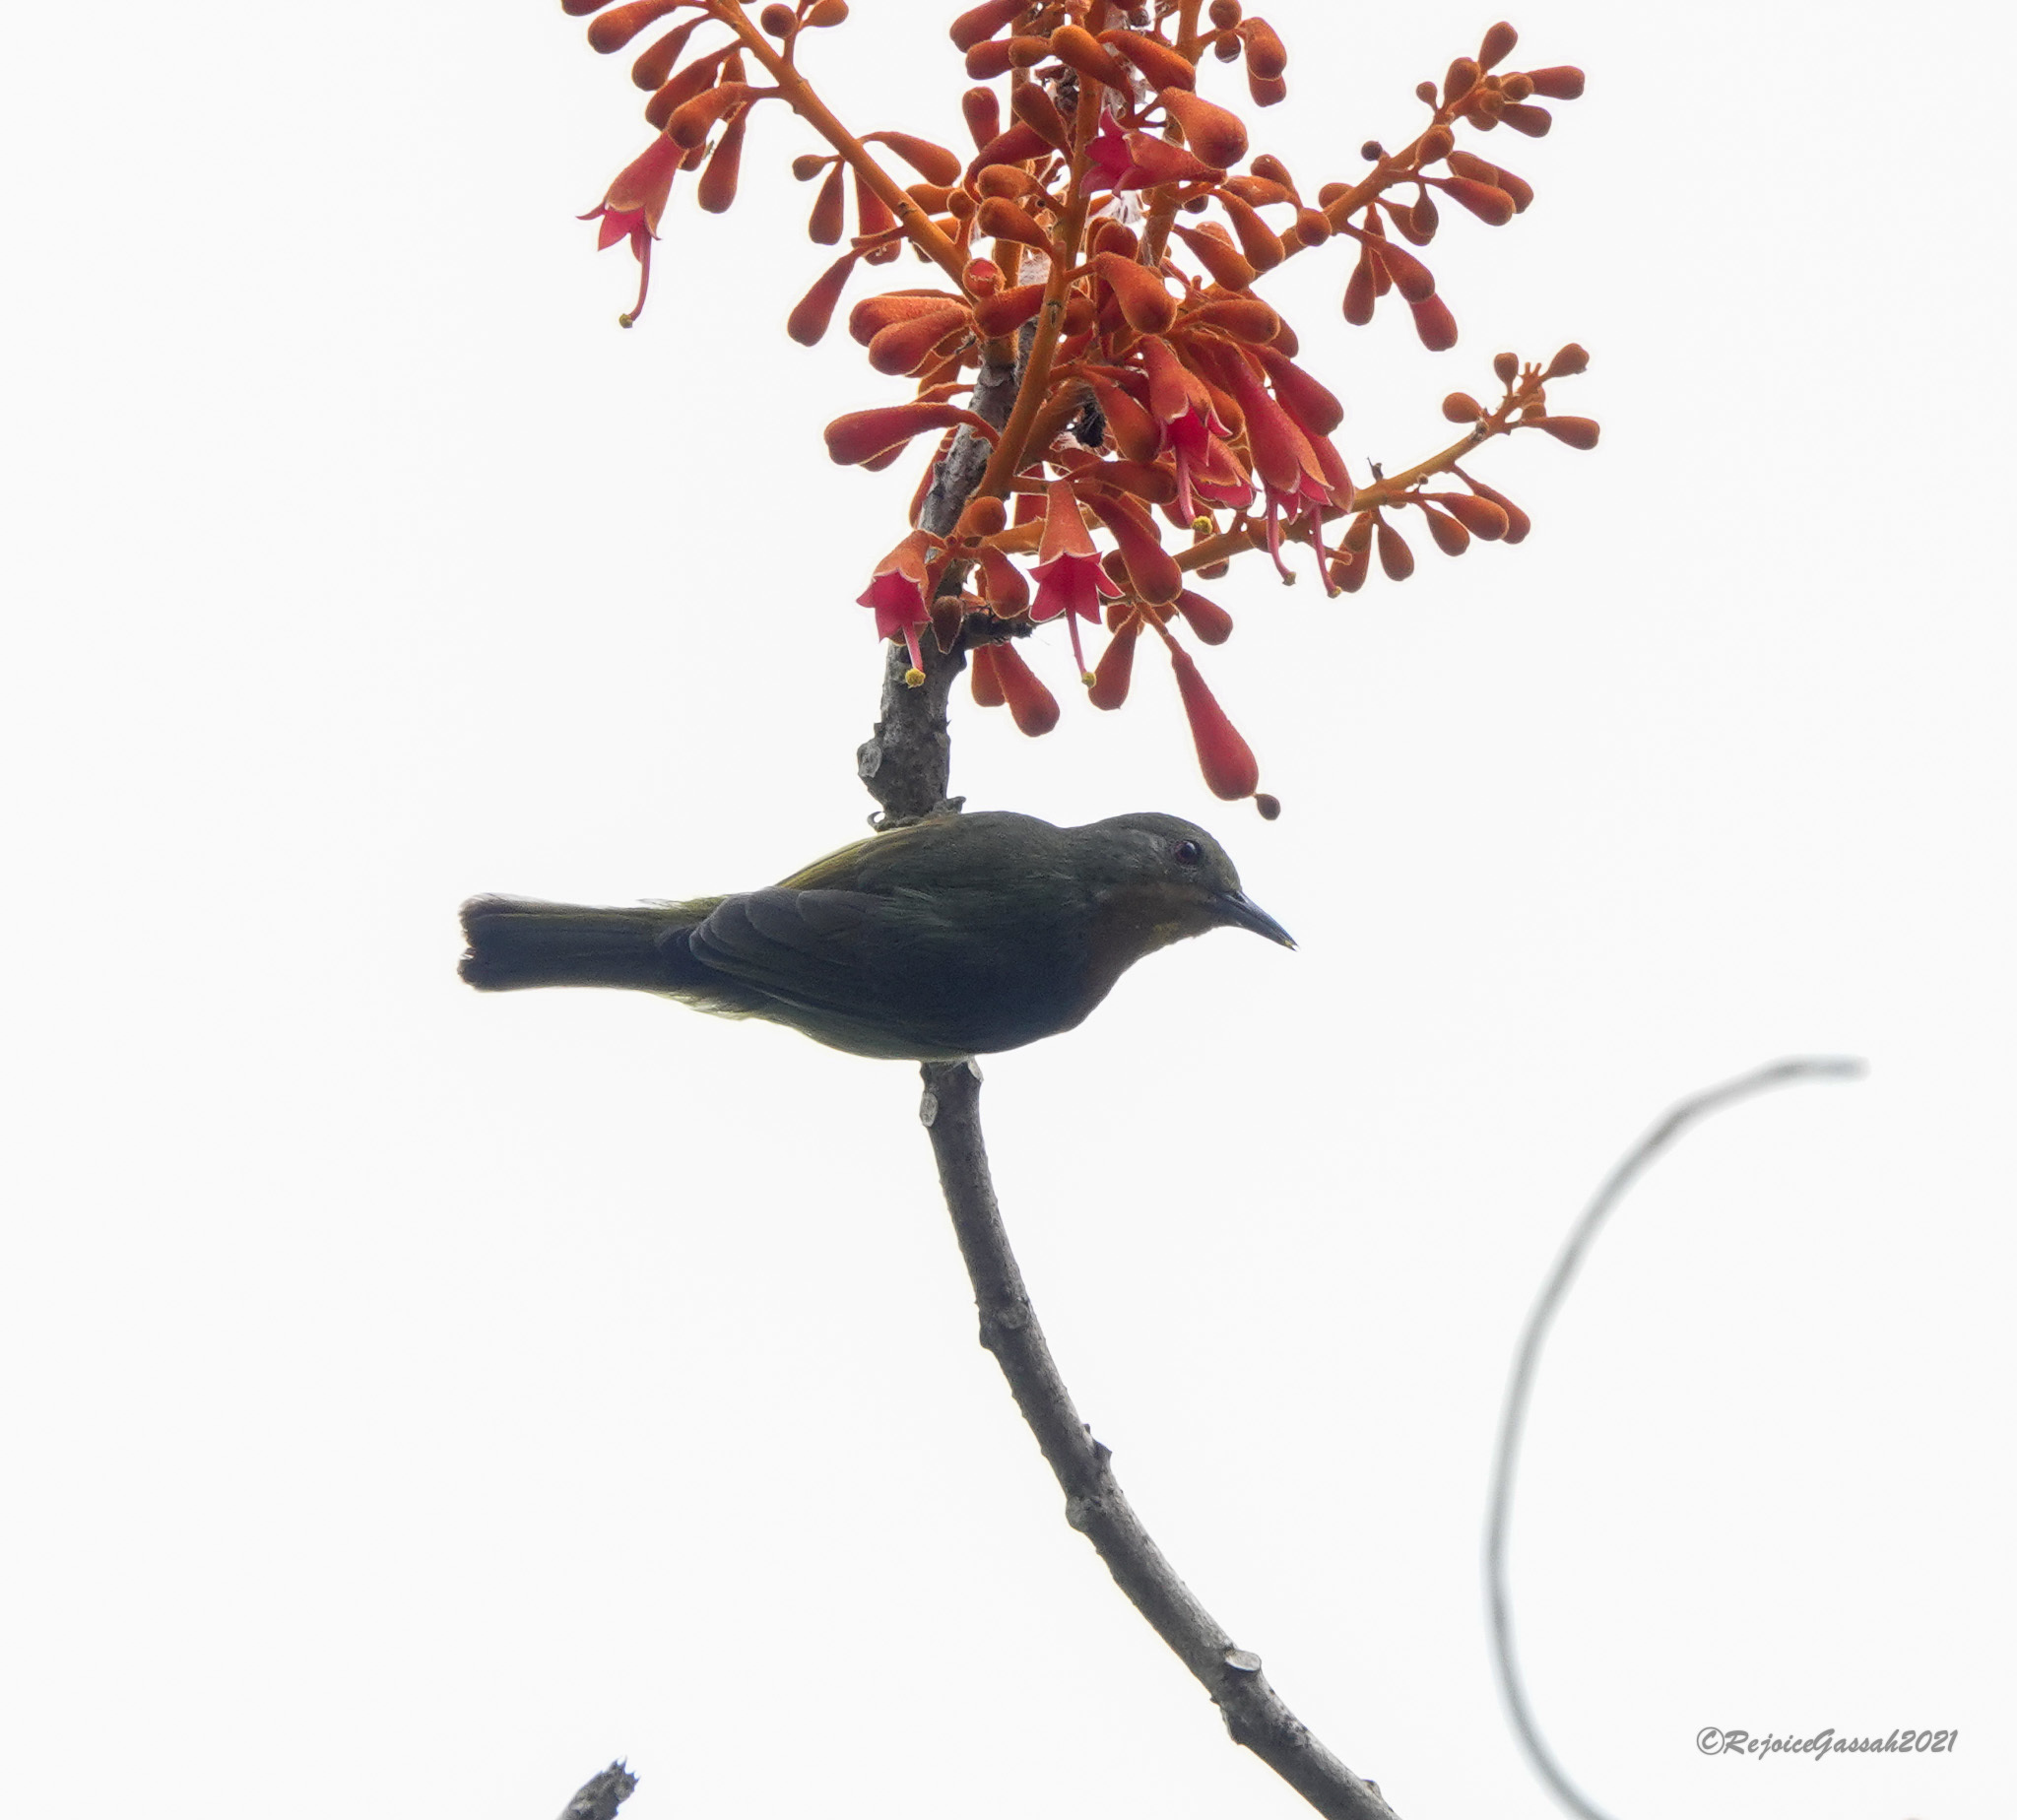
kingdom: Animalia
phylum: Chordata
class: Aves
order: Passeriformes
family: Nectariniidae
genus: Chalcoparia
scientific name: Chalcoparia singalensis
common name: Ruby-cheeked sunbird
